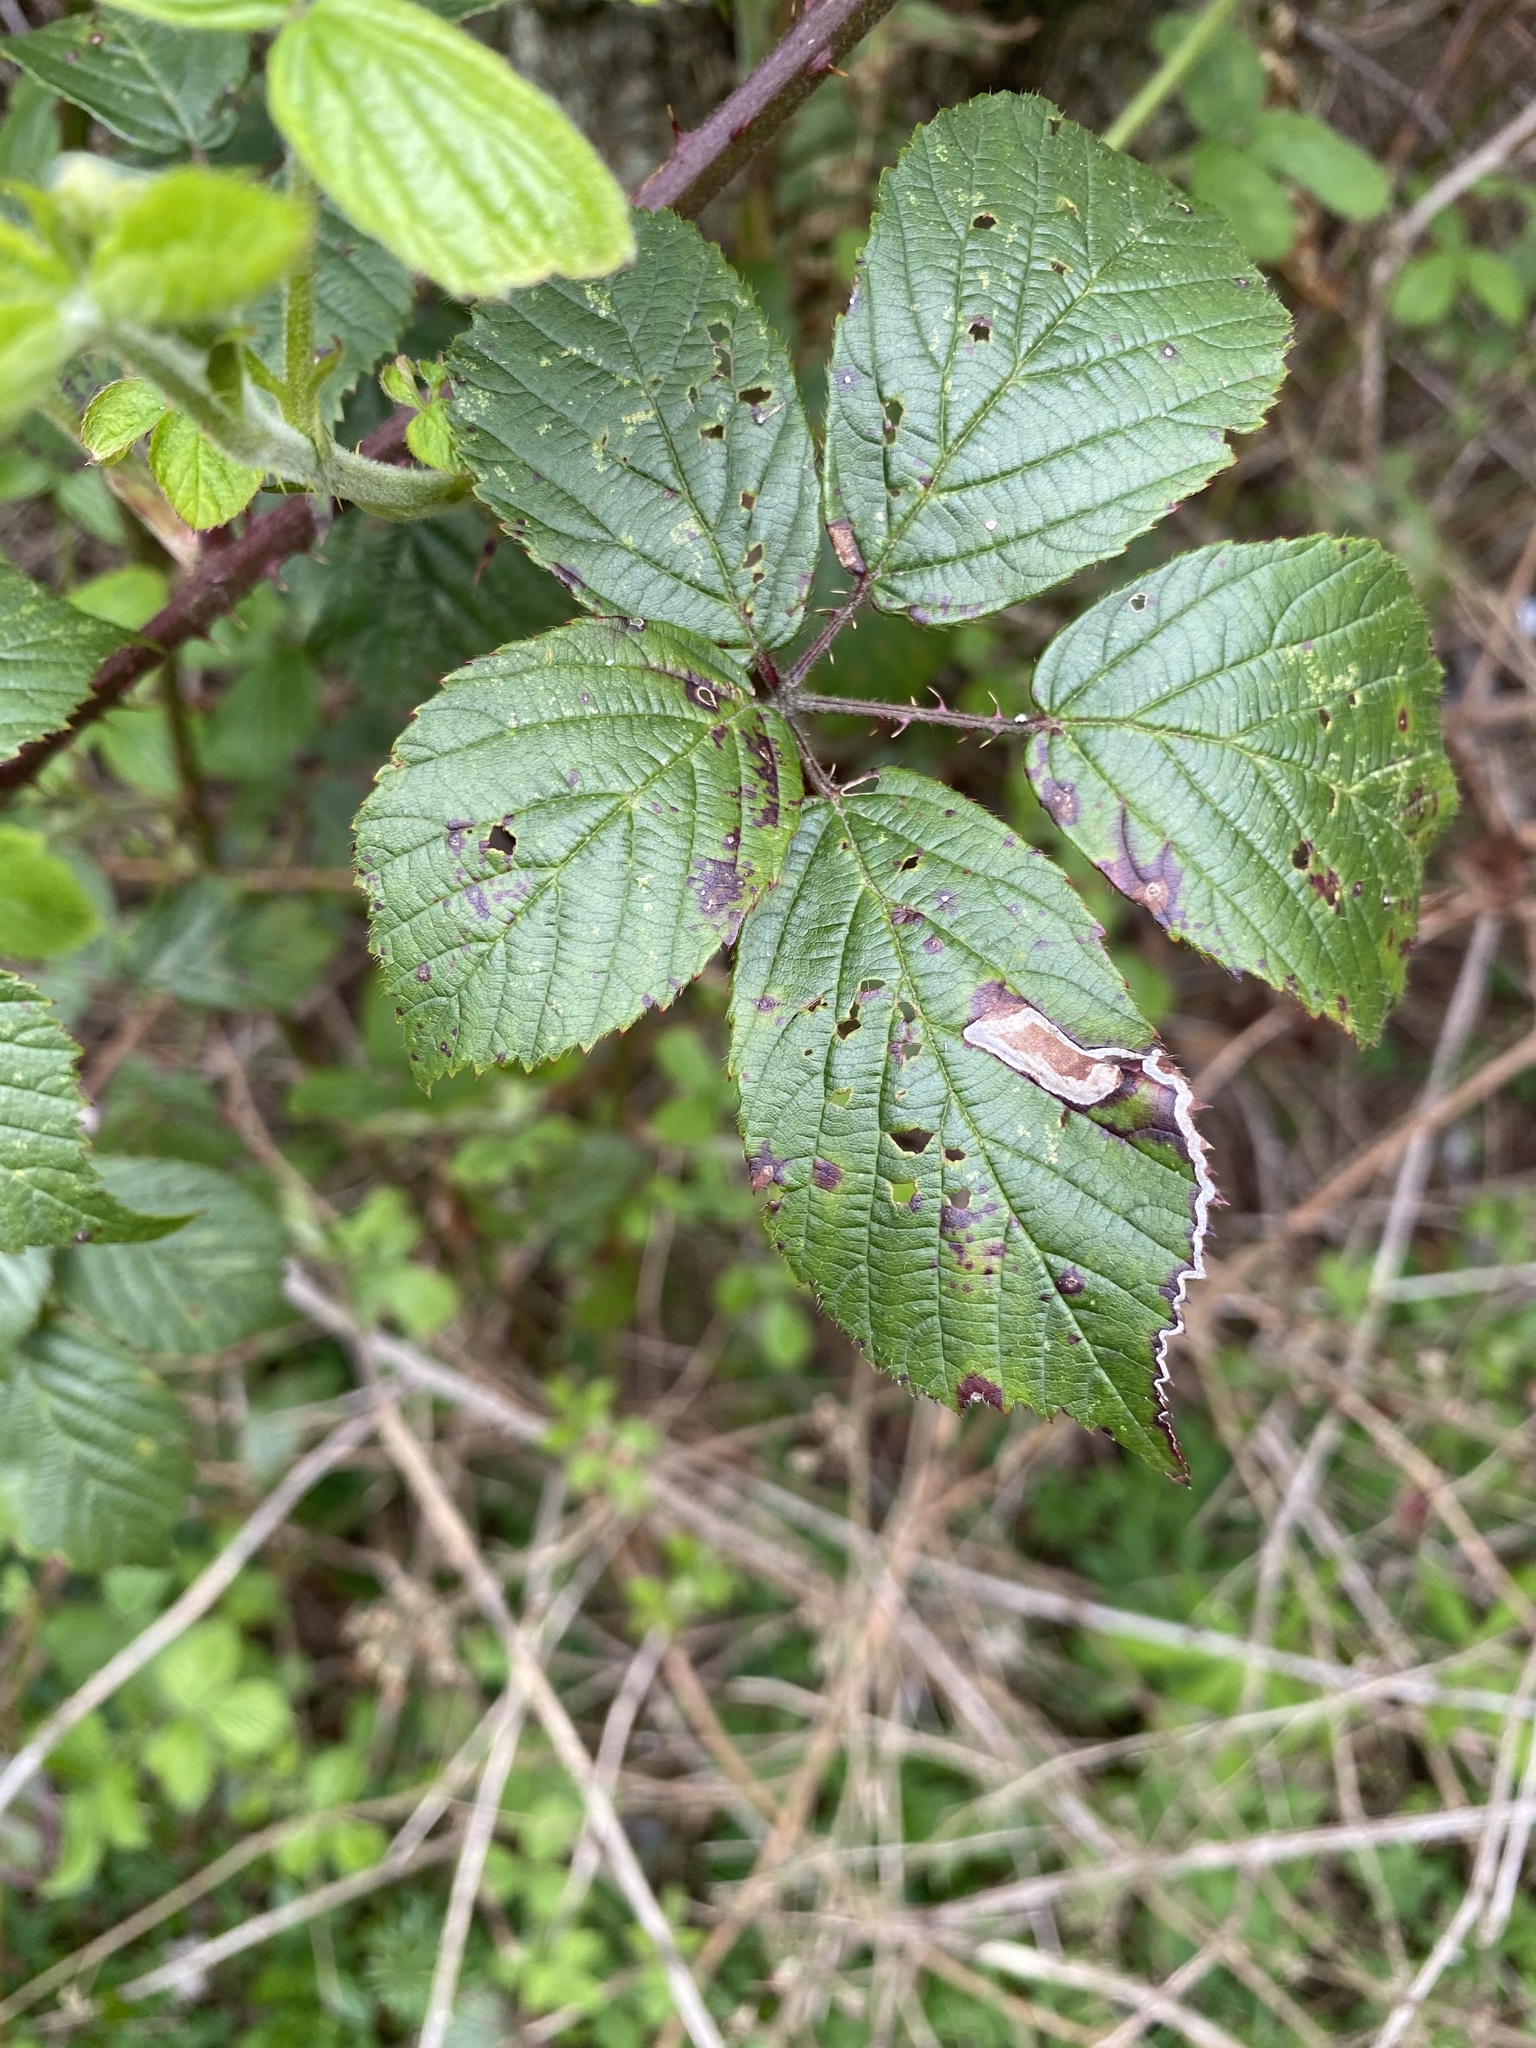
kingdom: Animalia
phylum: Arthropoda
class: Insecta
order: Lepidoptera
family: Nepticulidae
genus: Stigmella
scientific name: Stigmella aurella
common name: Golden pigmy
